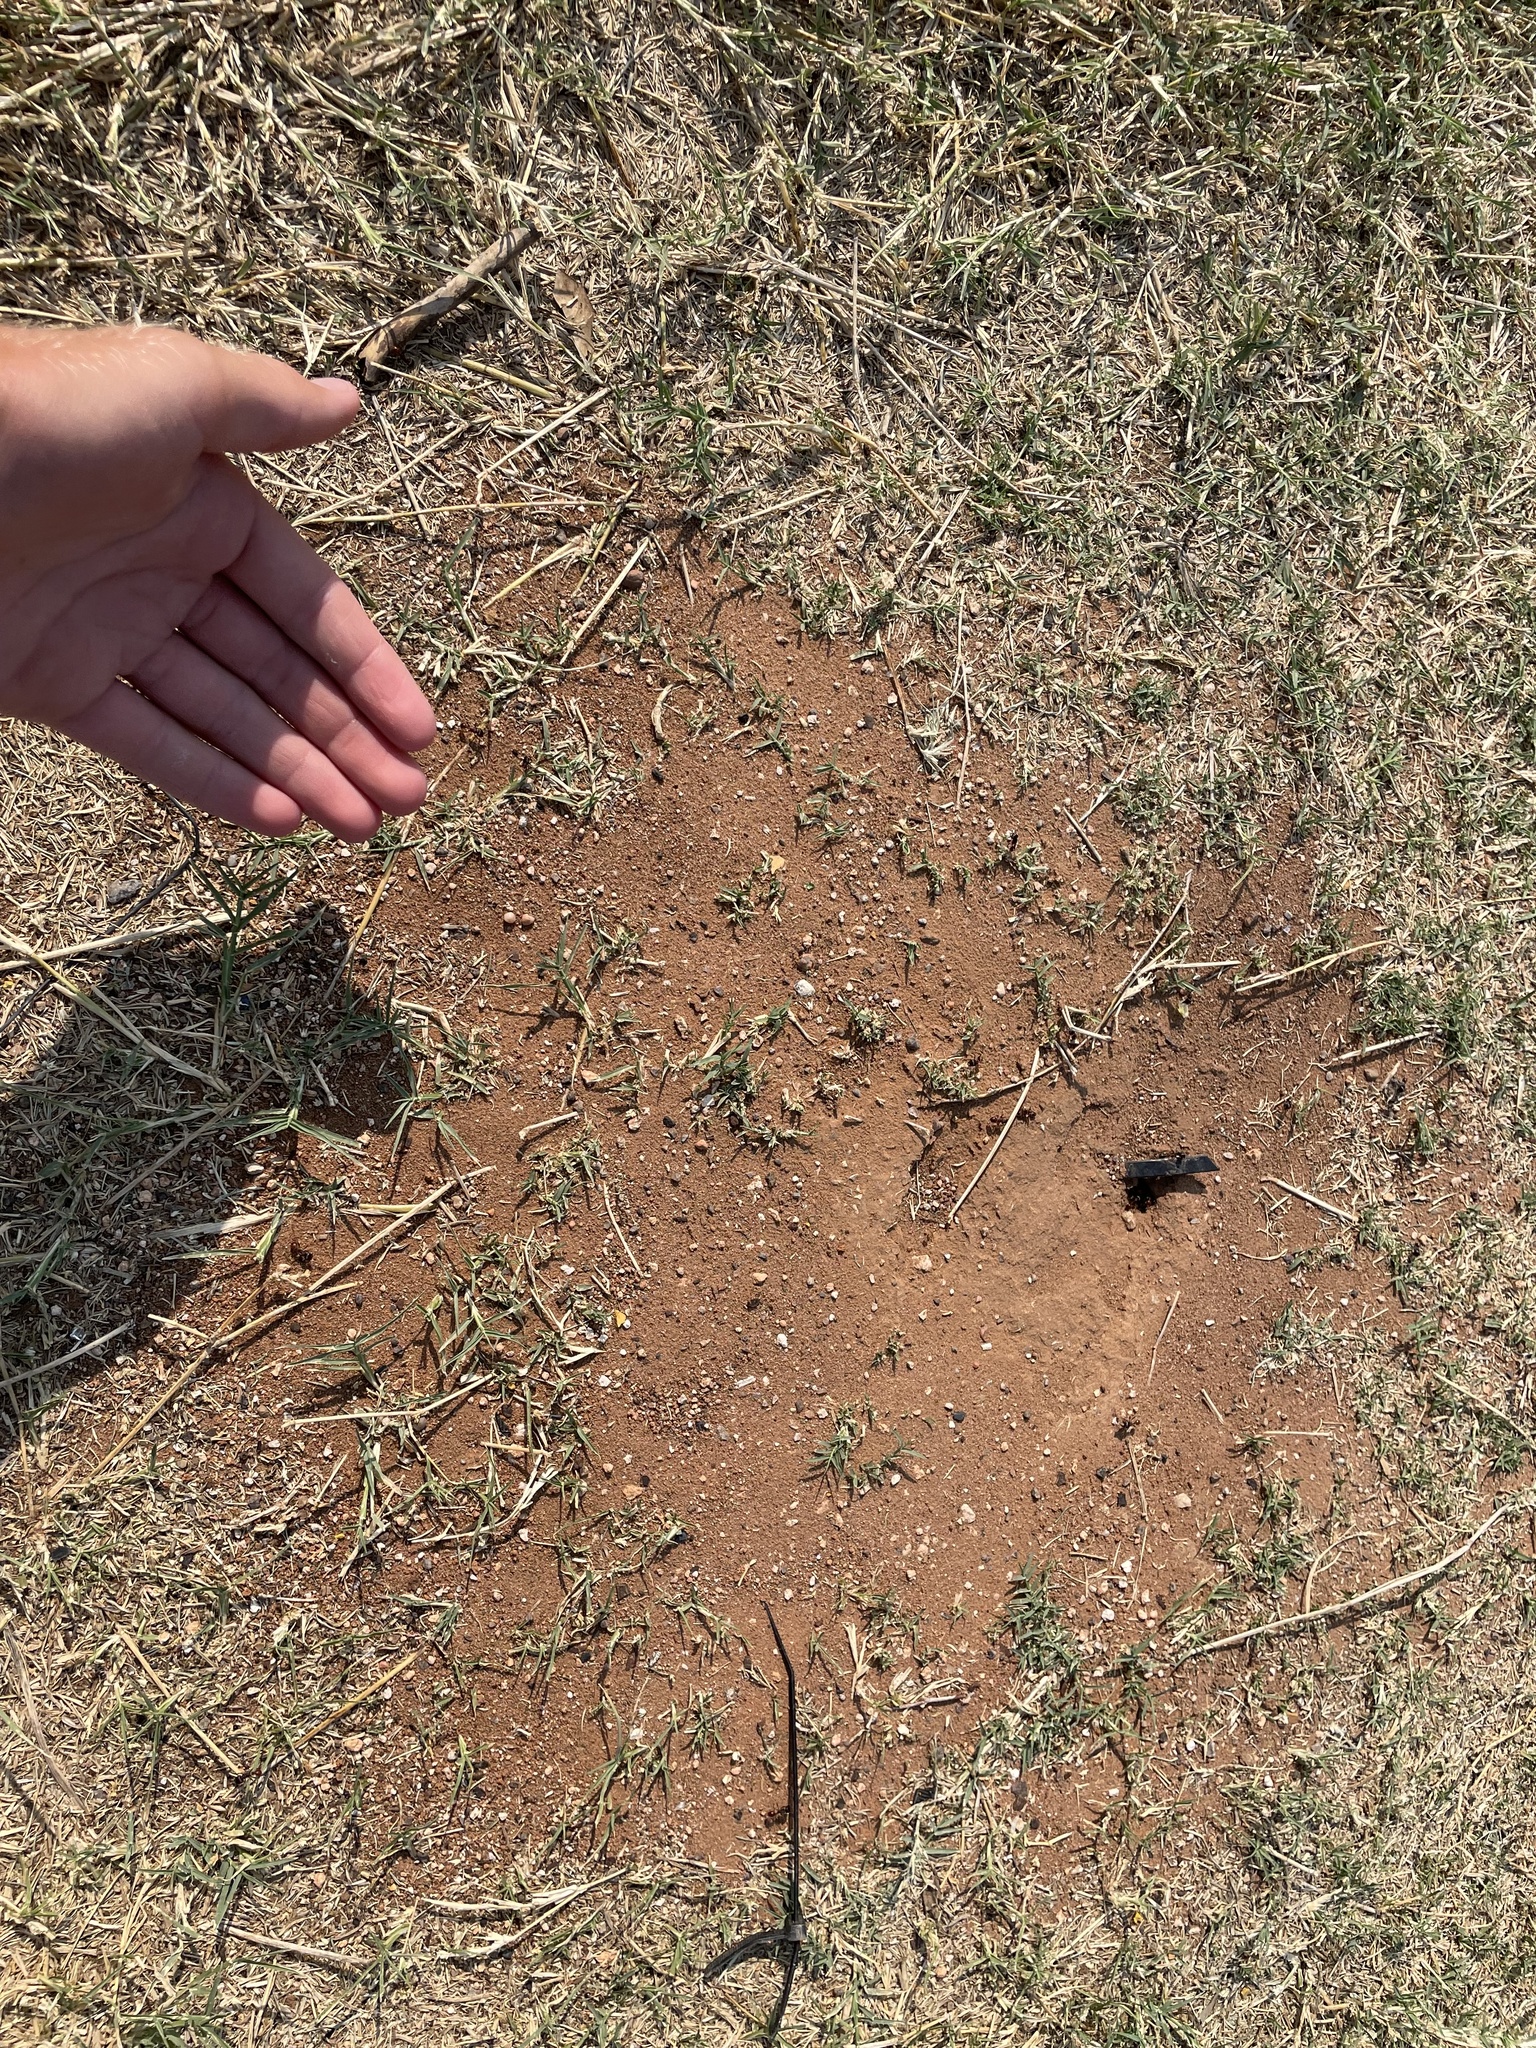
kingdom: Animalia
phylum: Arthropoda
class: Insecta
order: Hymenoptera
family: Formicidae
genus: Pogonomyrmex
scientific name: Pogonomyrmex rugosus
